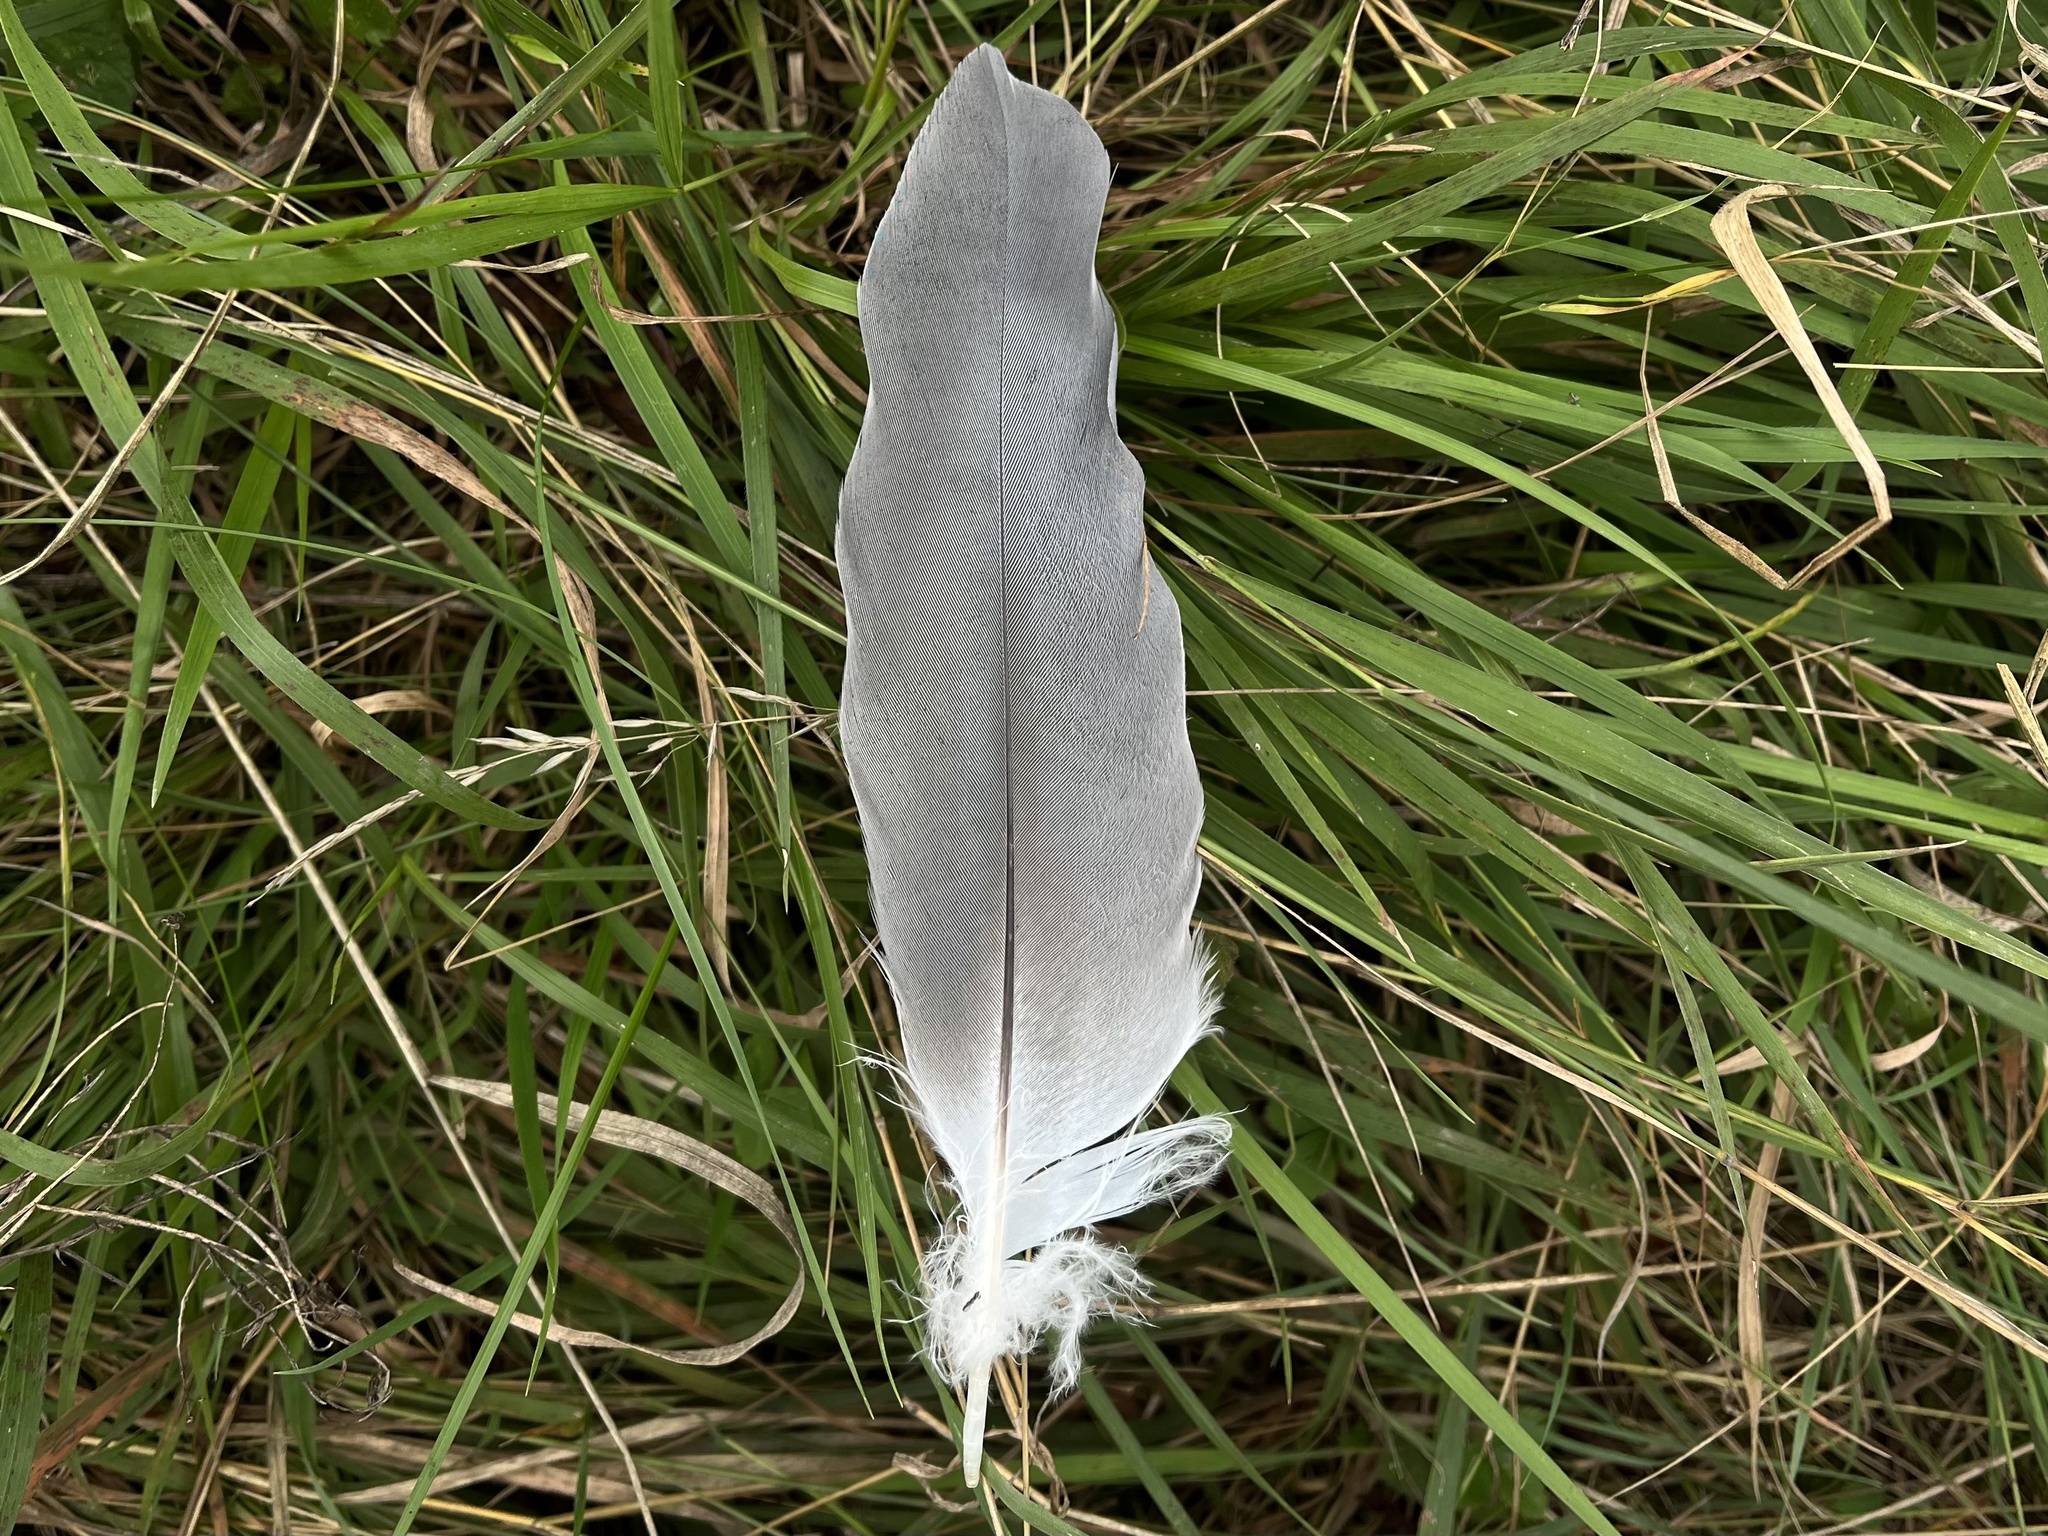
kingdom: Animalia
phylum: Chordata
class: Aves
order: Pelecaniformes
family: Ardeidae
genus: Ardea
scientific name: Ardea cinerea
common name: Grey heron
